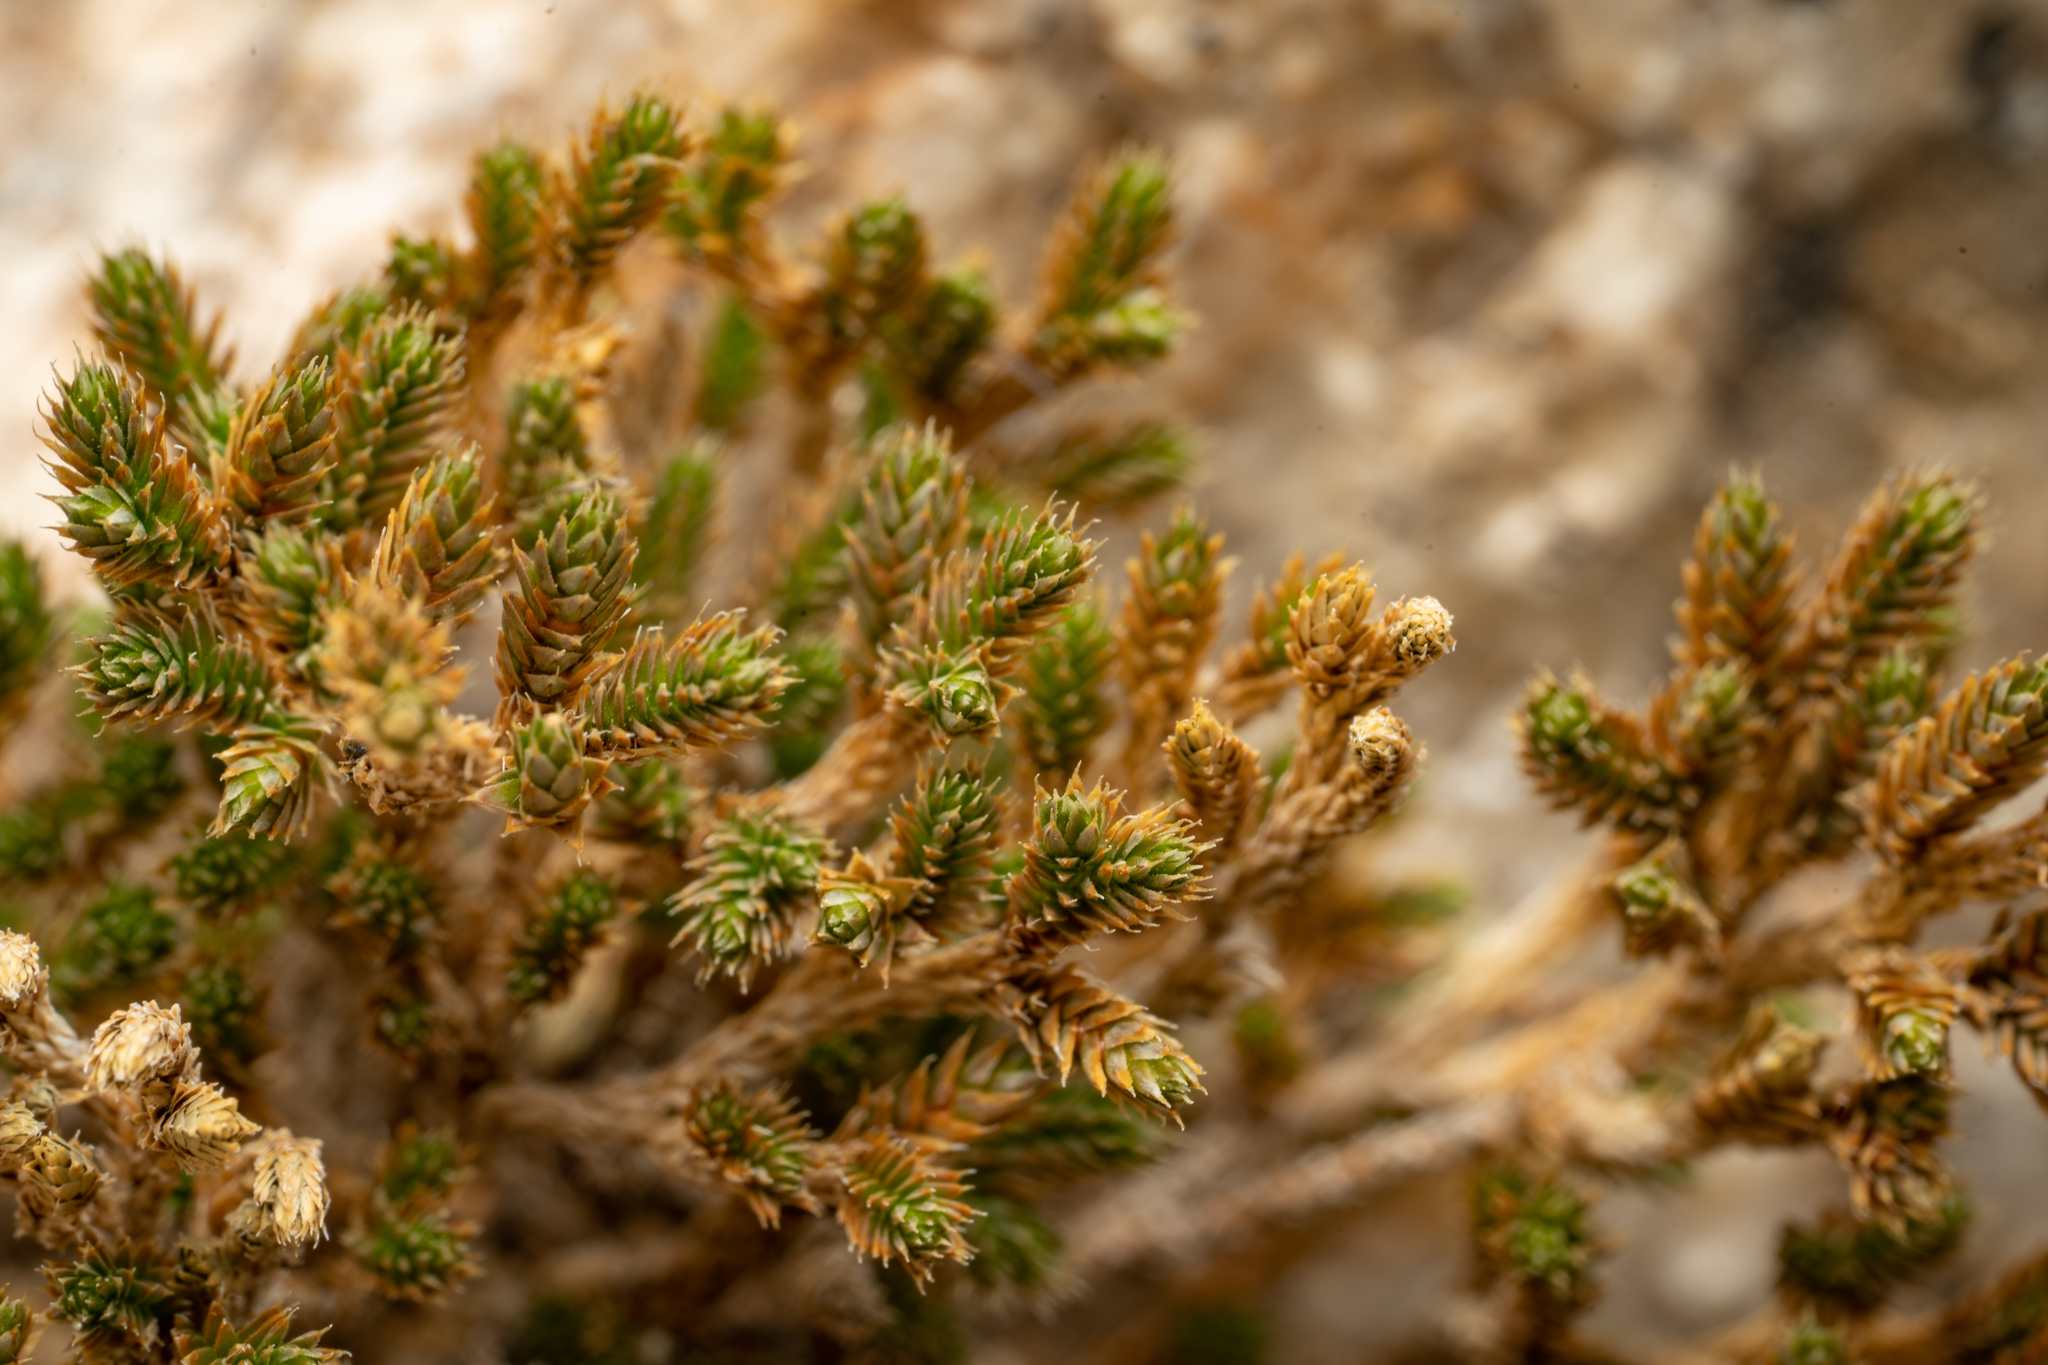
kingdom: Plantae
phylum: Tracheophyta
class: Lycopodiopsida
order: Selaginellales
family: Selaginellaceae
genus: Selaginella
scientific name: Selaginella bigelovii
